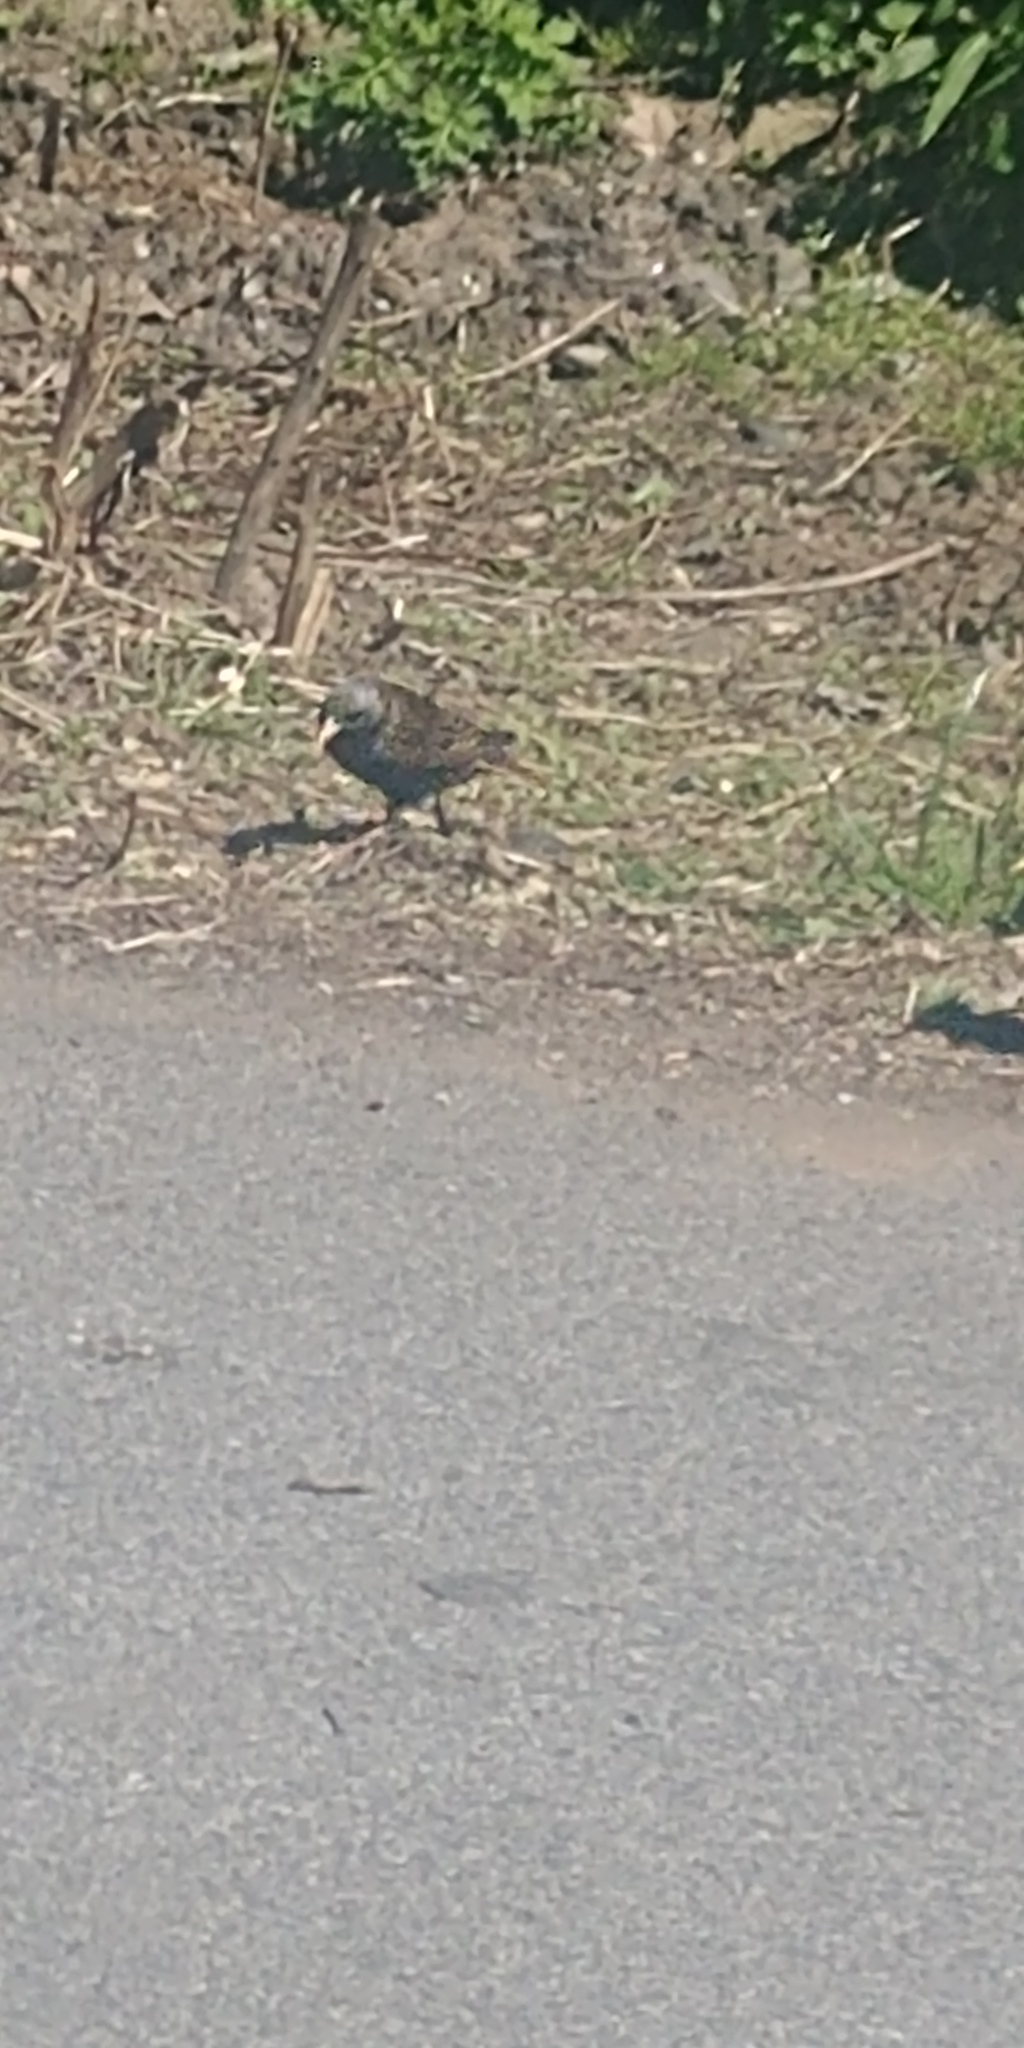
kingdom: Animalia
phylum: Chordata
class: Aves
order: Passeriformes
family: Sturnidae
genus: Sturnus
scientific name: Sturnus vulgaris
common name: Common starling
